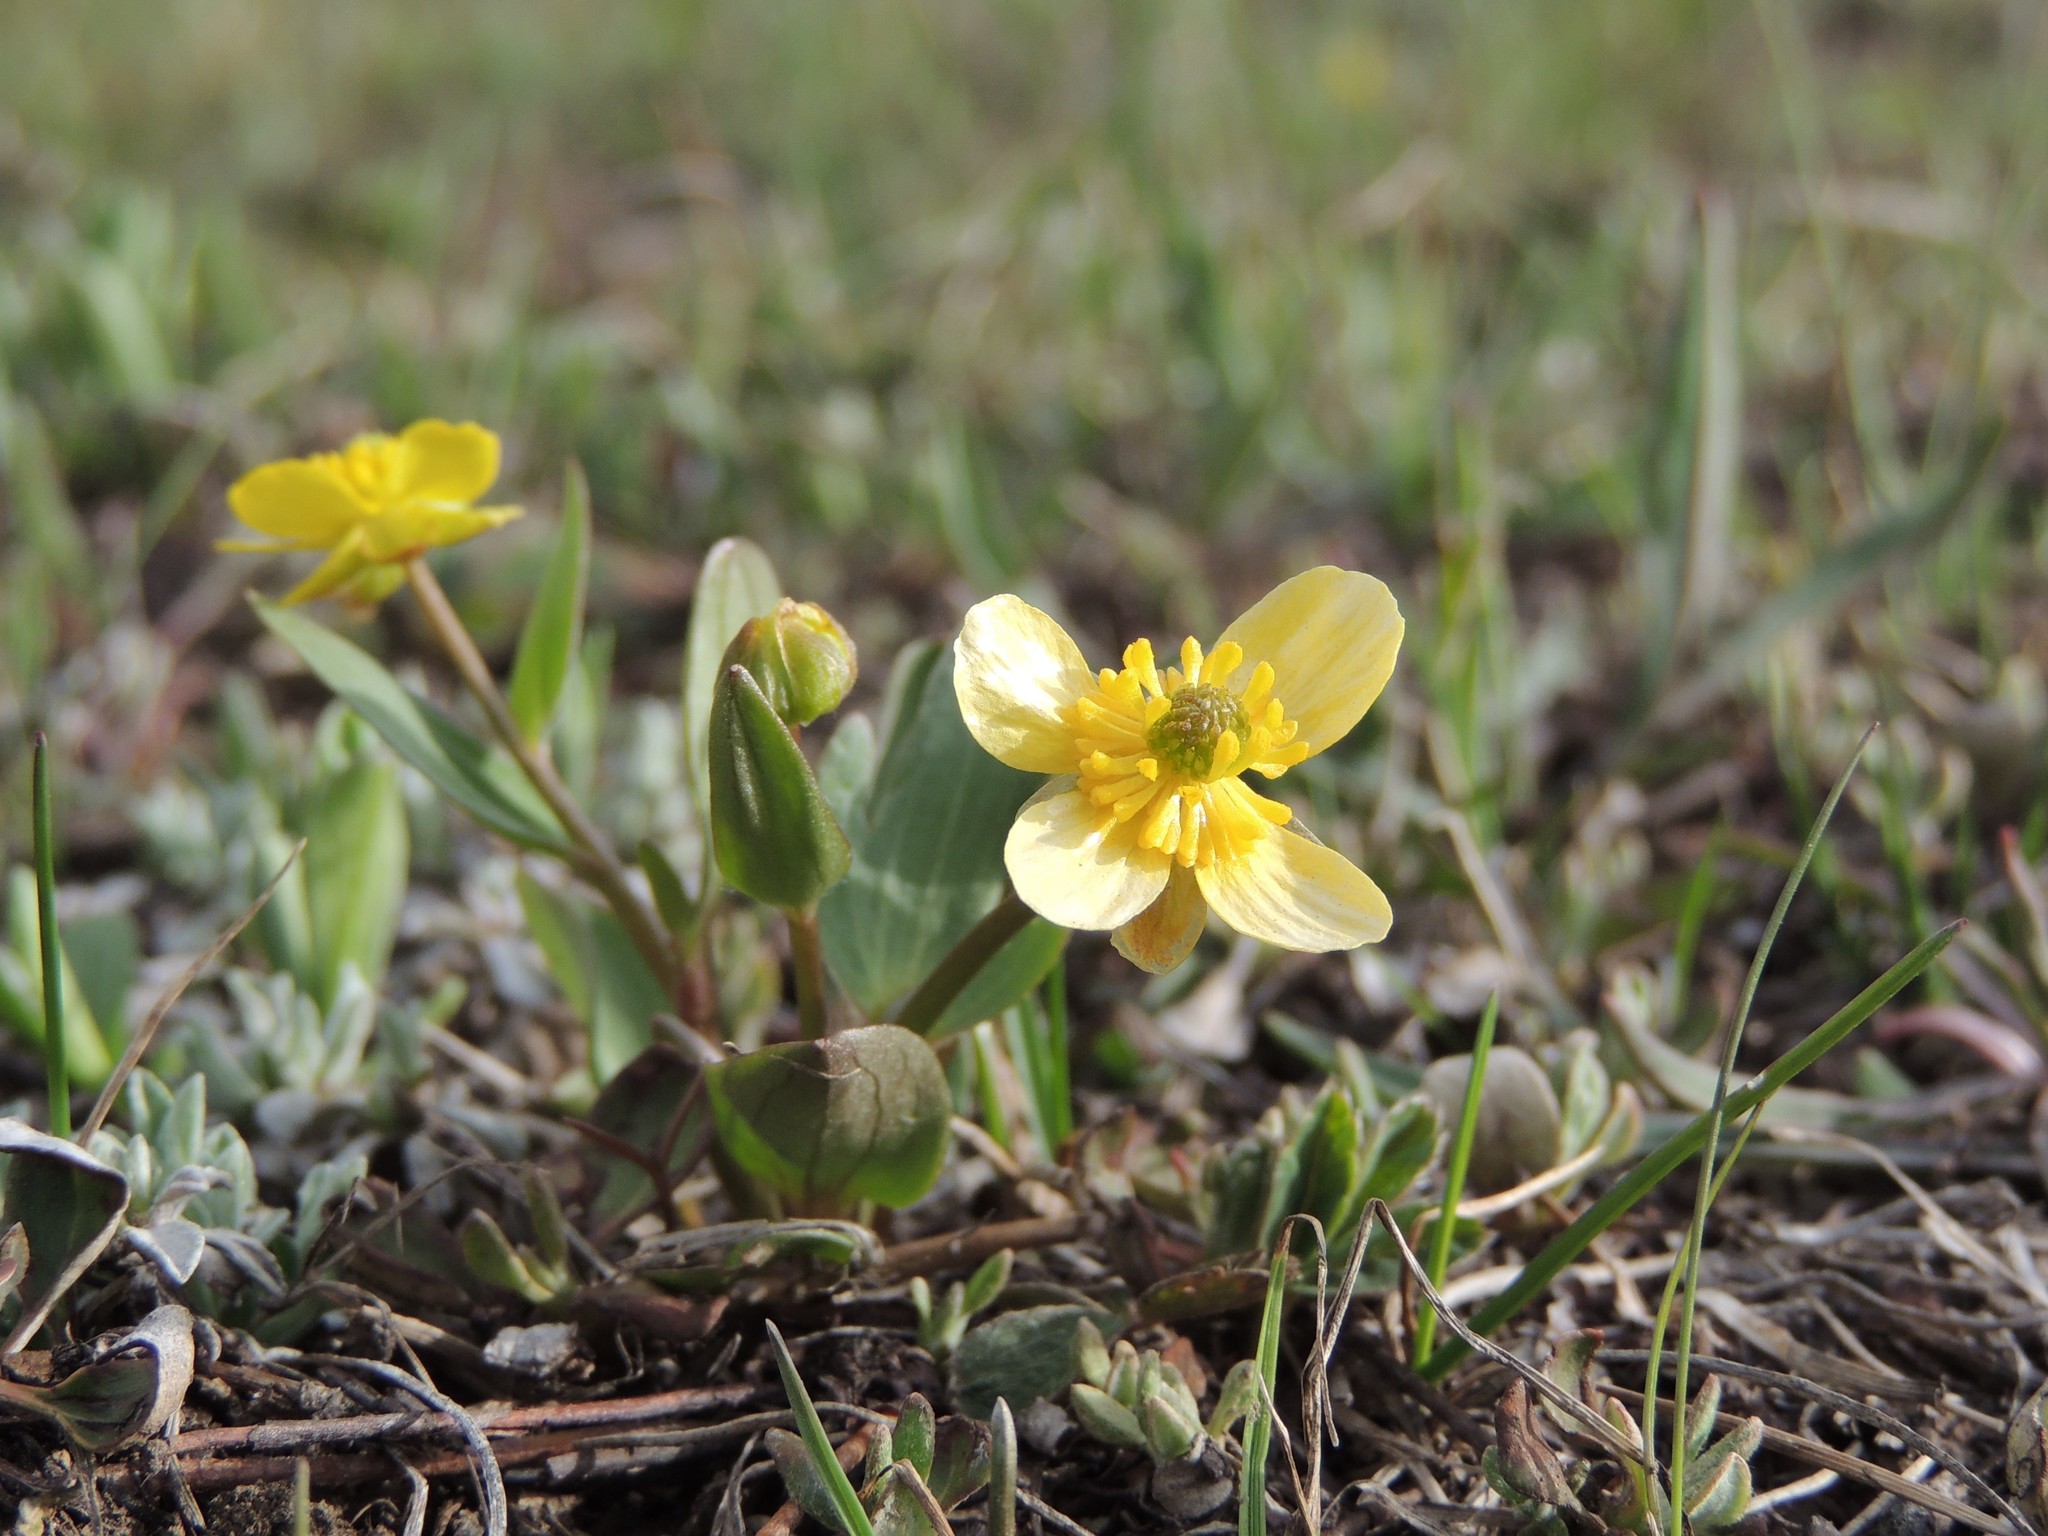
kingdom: Plantae
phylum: Tracheophyta
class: Magnoliopsida
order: Ranunculales
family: Ranunculaceae
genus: Ranunculus
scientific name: Ranunculus glaberrimus
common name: Sagebrush buttercup
